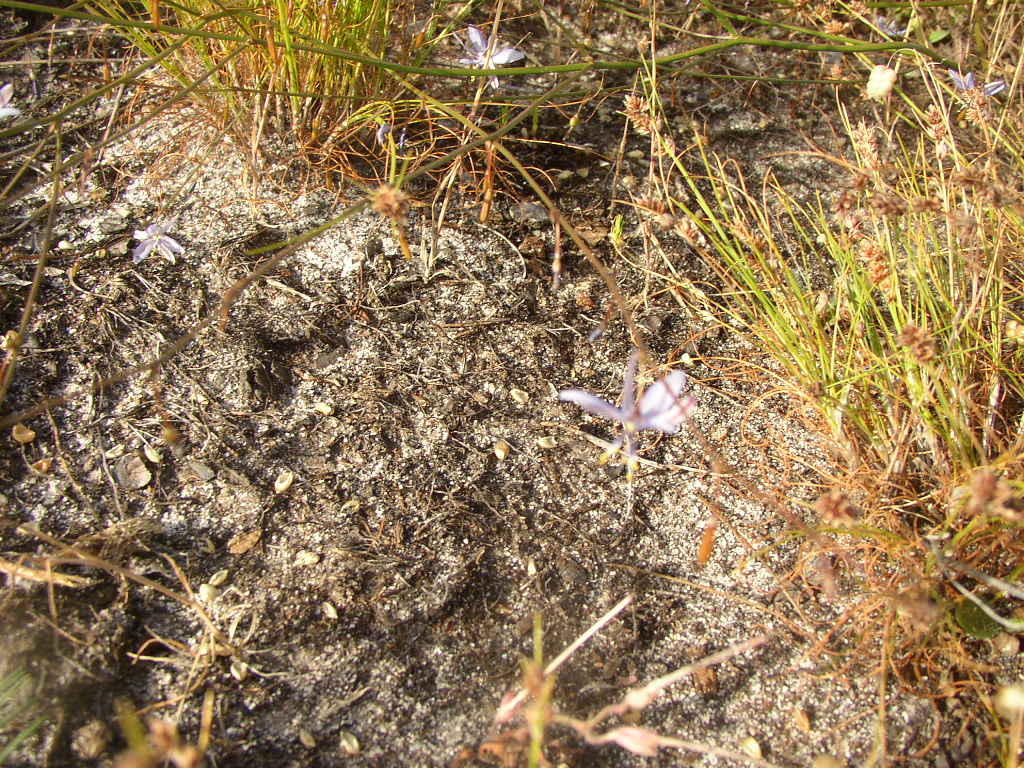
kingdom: Plantae
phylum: Tracheophyta
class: Liliopsida
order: Asparagales
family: Asphodelaceae
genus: Caesia
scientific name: Caesia contorta
